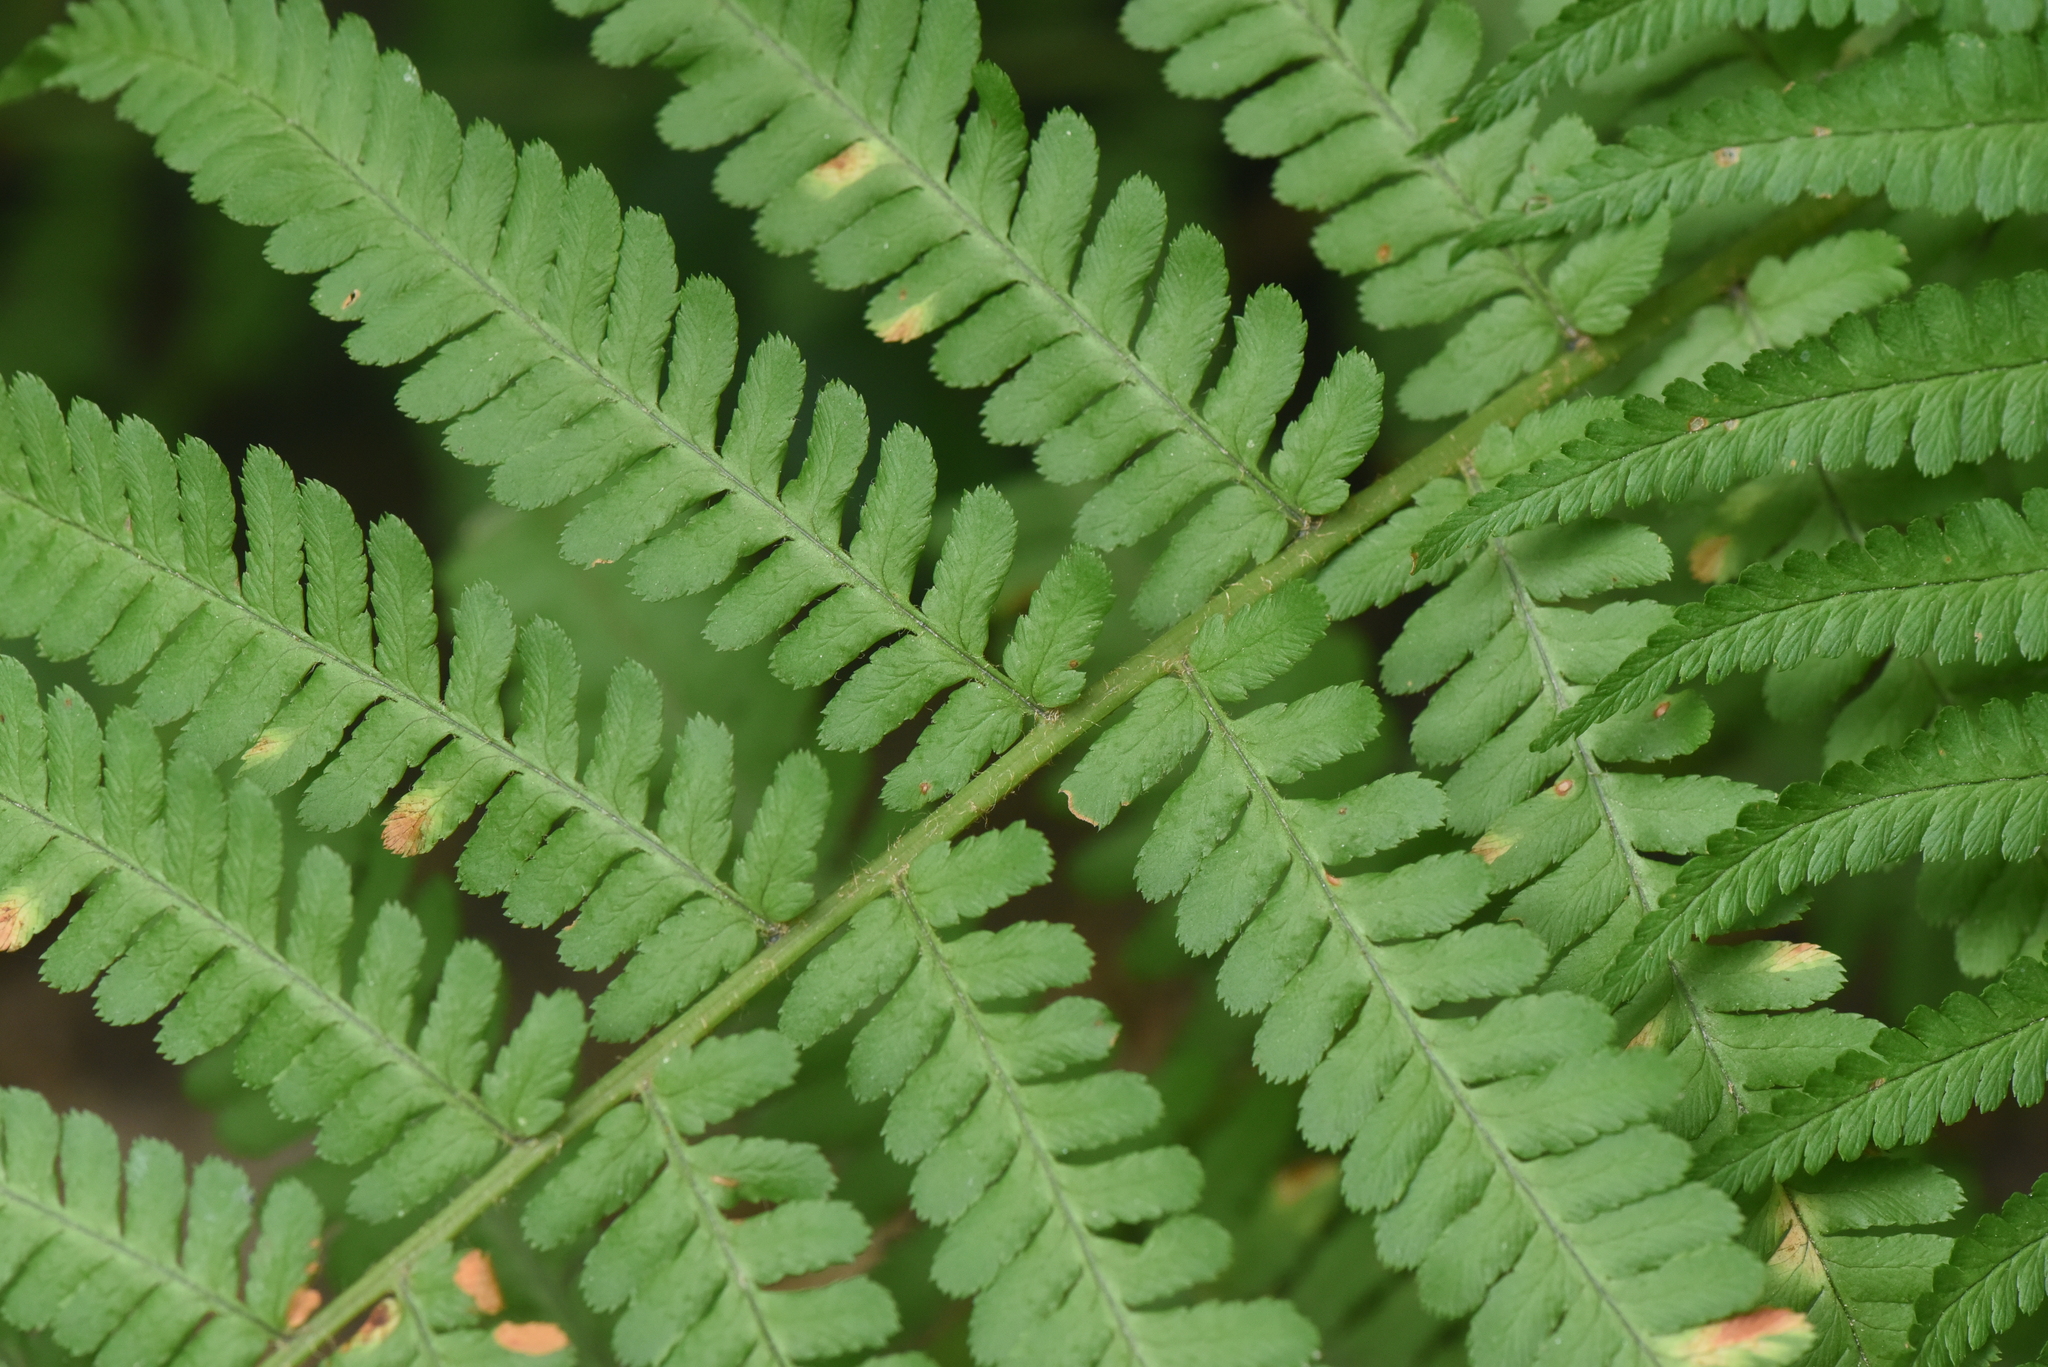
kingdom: Plantae
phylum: Tracheophyta
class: Polypodiopsida
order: Polypodiales
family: Dryopteridaceae
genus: Dryopteris
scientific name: Dryopteris filix-mas
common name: Male fern
